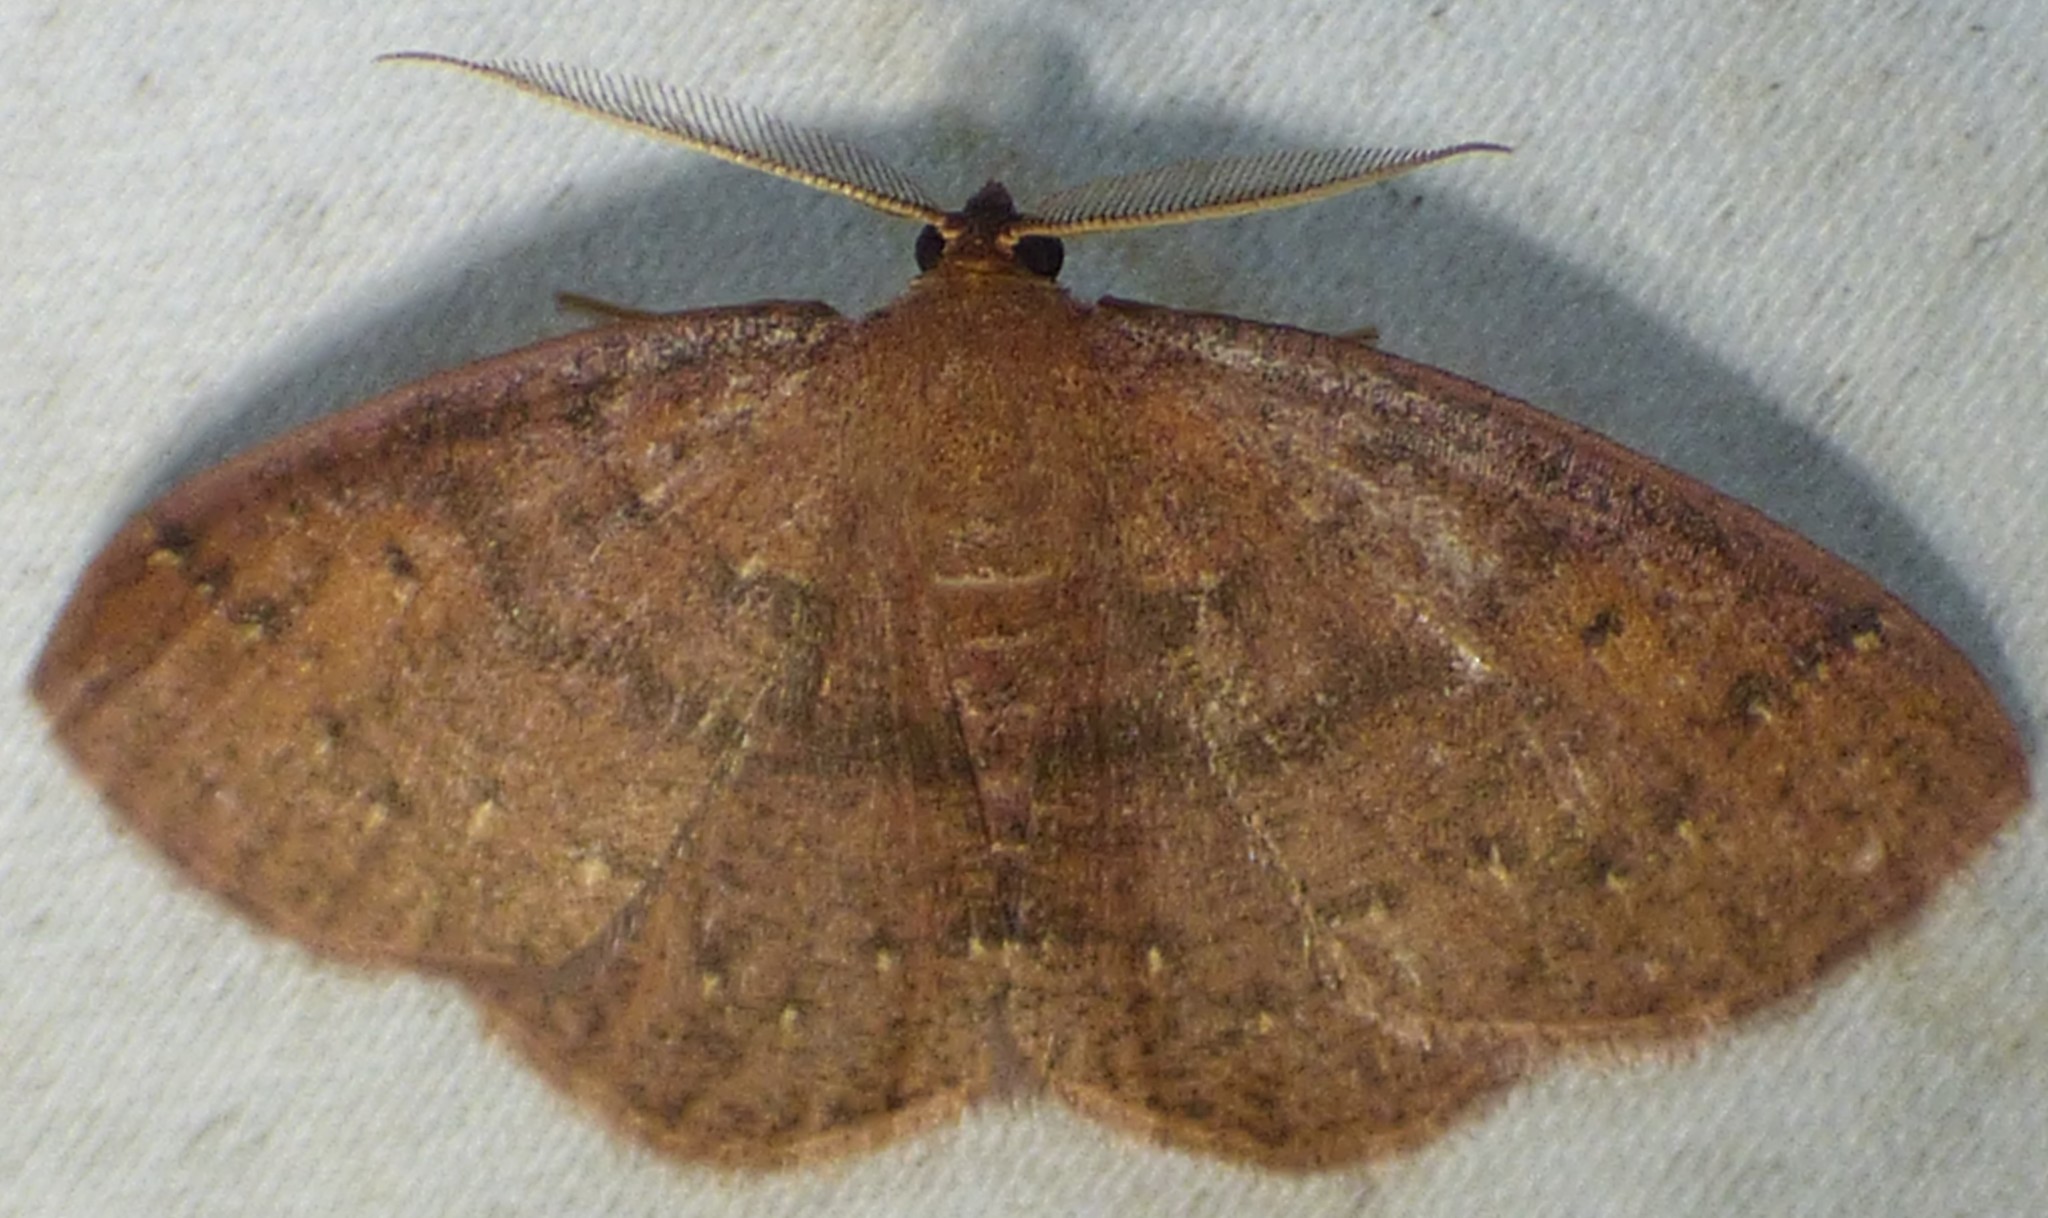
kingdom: Animalia
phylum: Arthropoda
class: Insecta
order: Lepidoptera
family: Geometridae
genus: Ilexia
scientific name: Ilexia intractata
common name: Black-dotted ruddy moth
